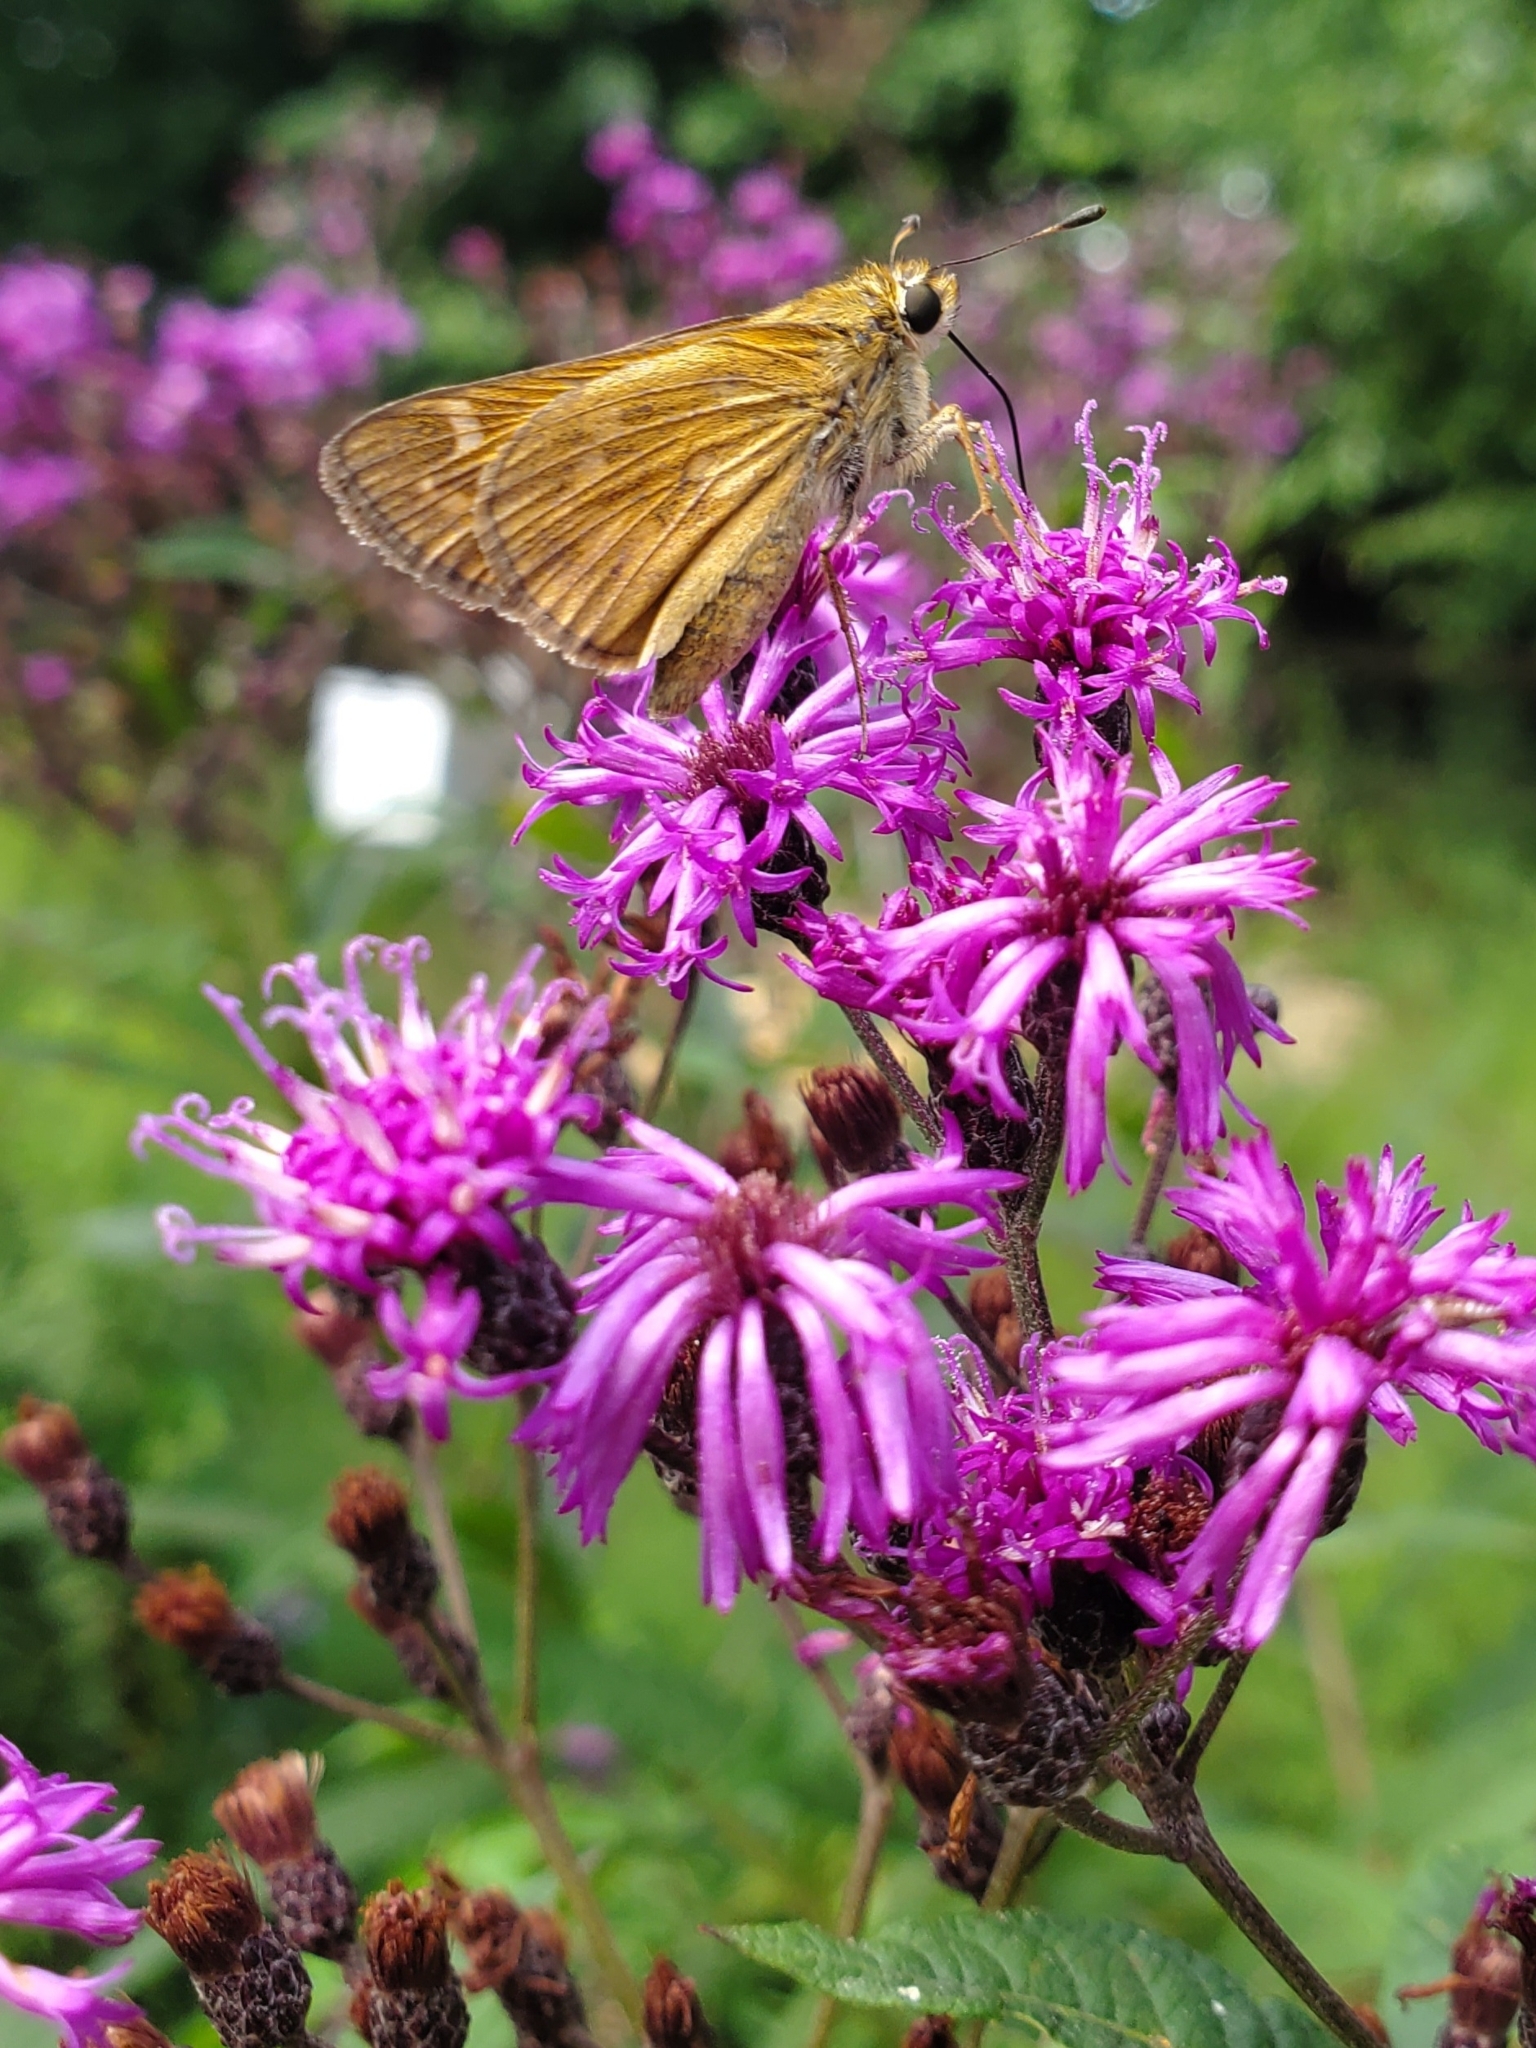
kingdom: Animalia
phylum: Arthropoda
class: Insecta
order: Lepidoptera
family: Hesperiidae
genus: Atalopedes
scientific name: Atalopedes
